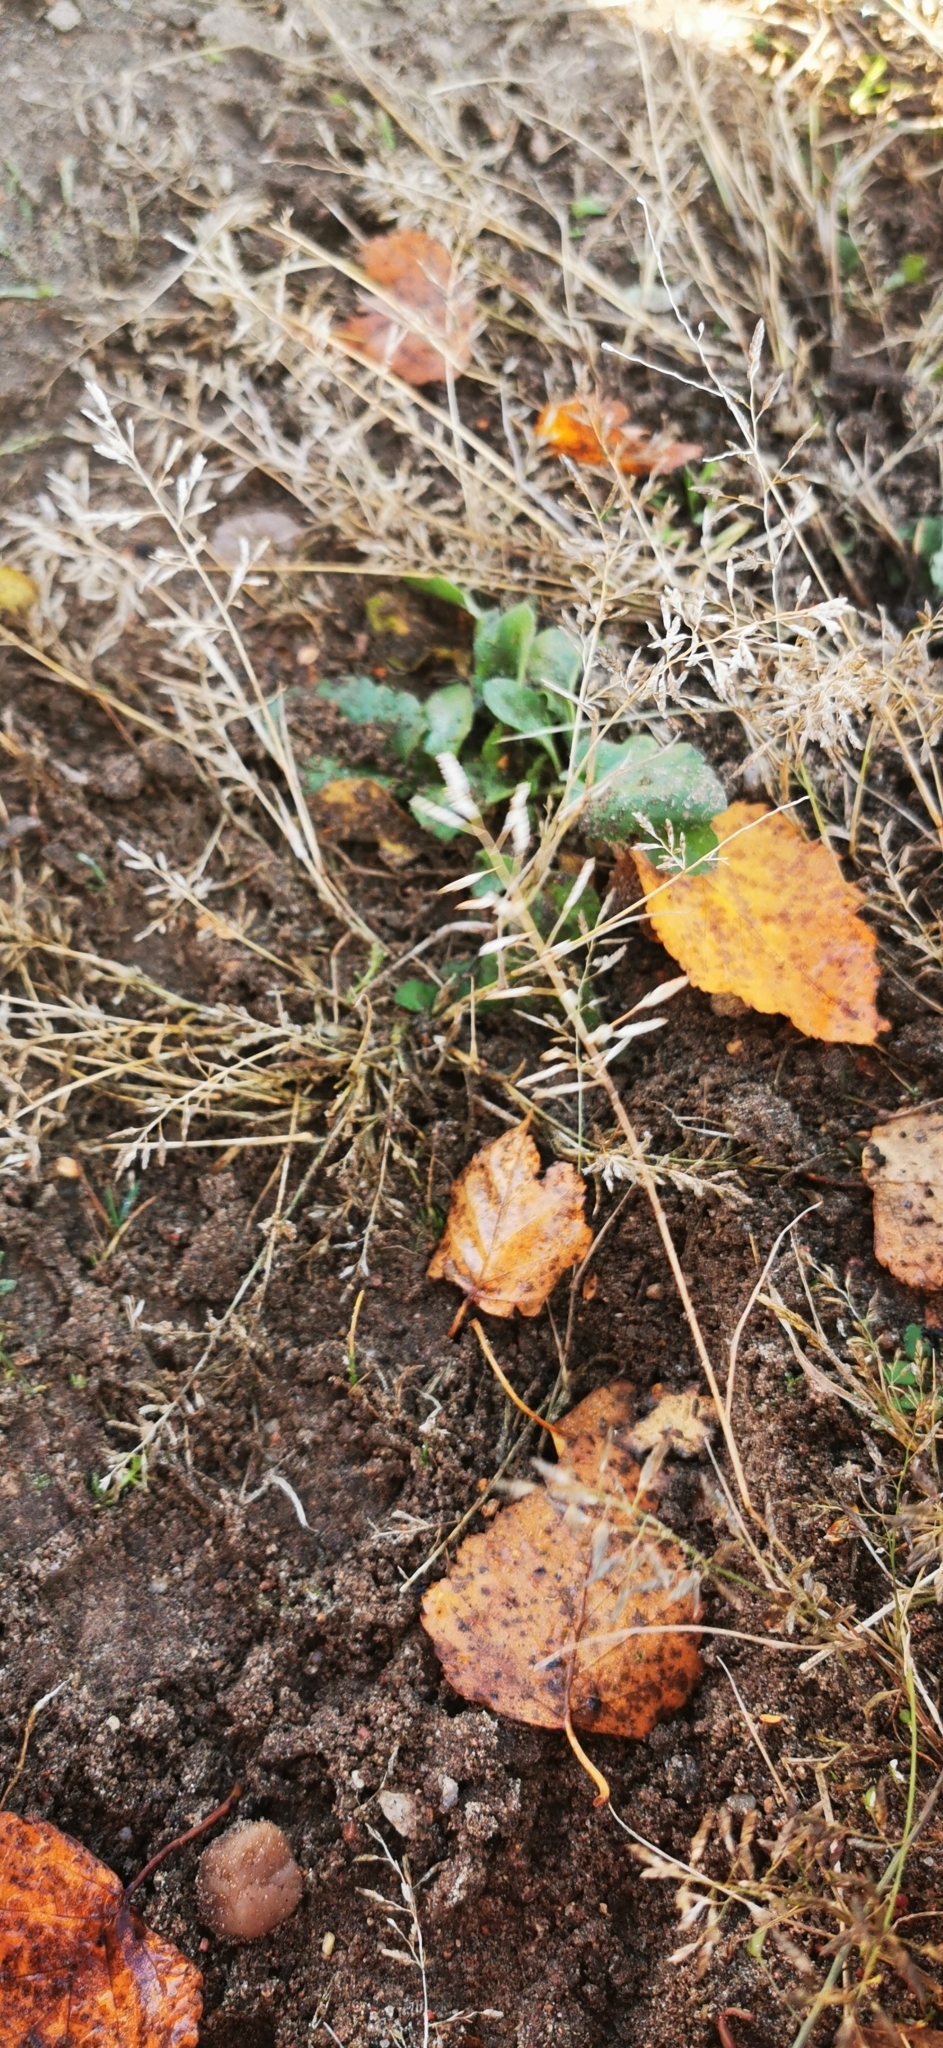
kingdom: Plantae
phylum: Tracheophyta
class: Liliopsida
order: Poales
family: Poaceae
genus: Eragrostis
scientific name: Eragrostis minor
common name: Small love-grass
